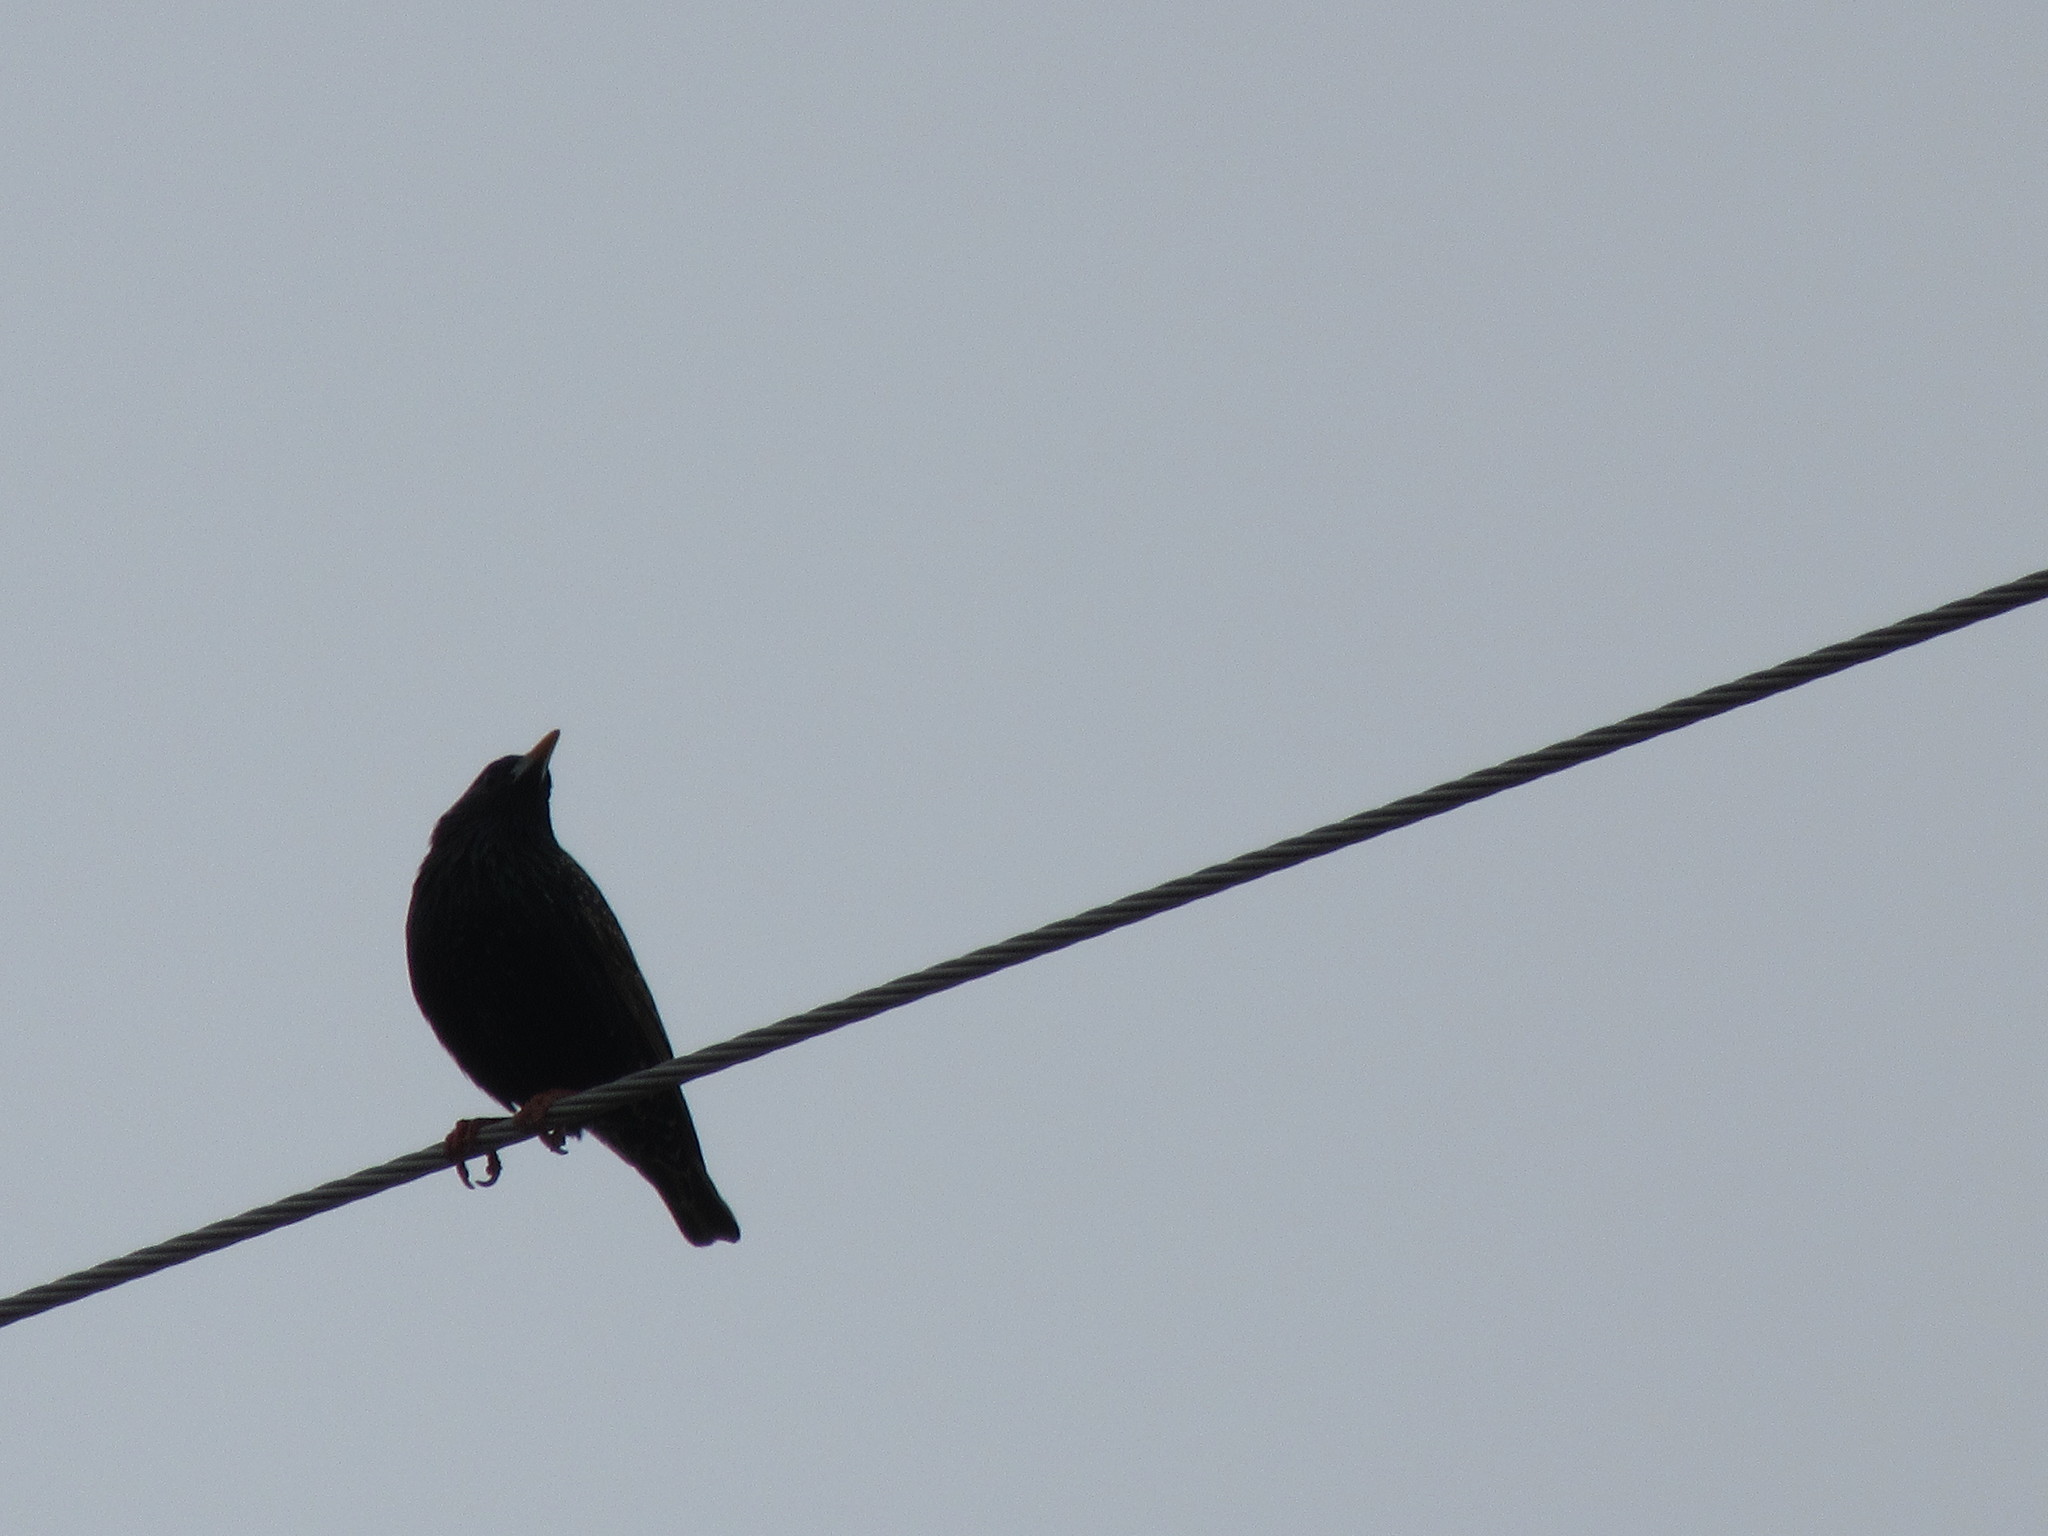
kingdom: Animalia
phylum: Chordata
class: Aves
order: Passeriformes
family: Sturnidae
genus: Sturnus
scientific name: Sturnus vulgaris
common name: Common starling
